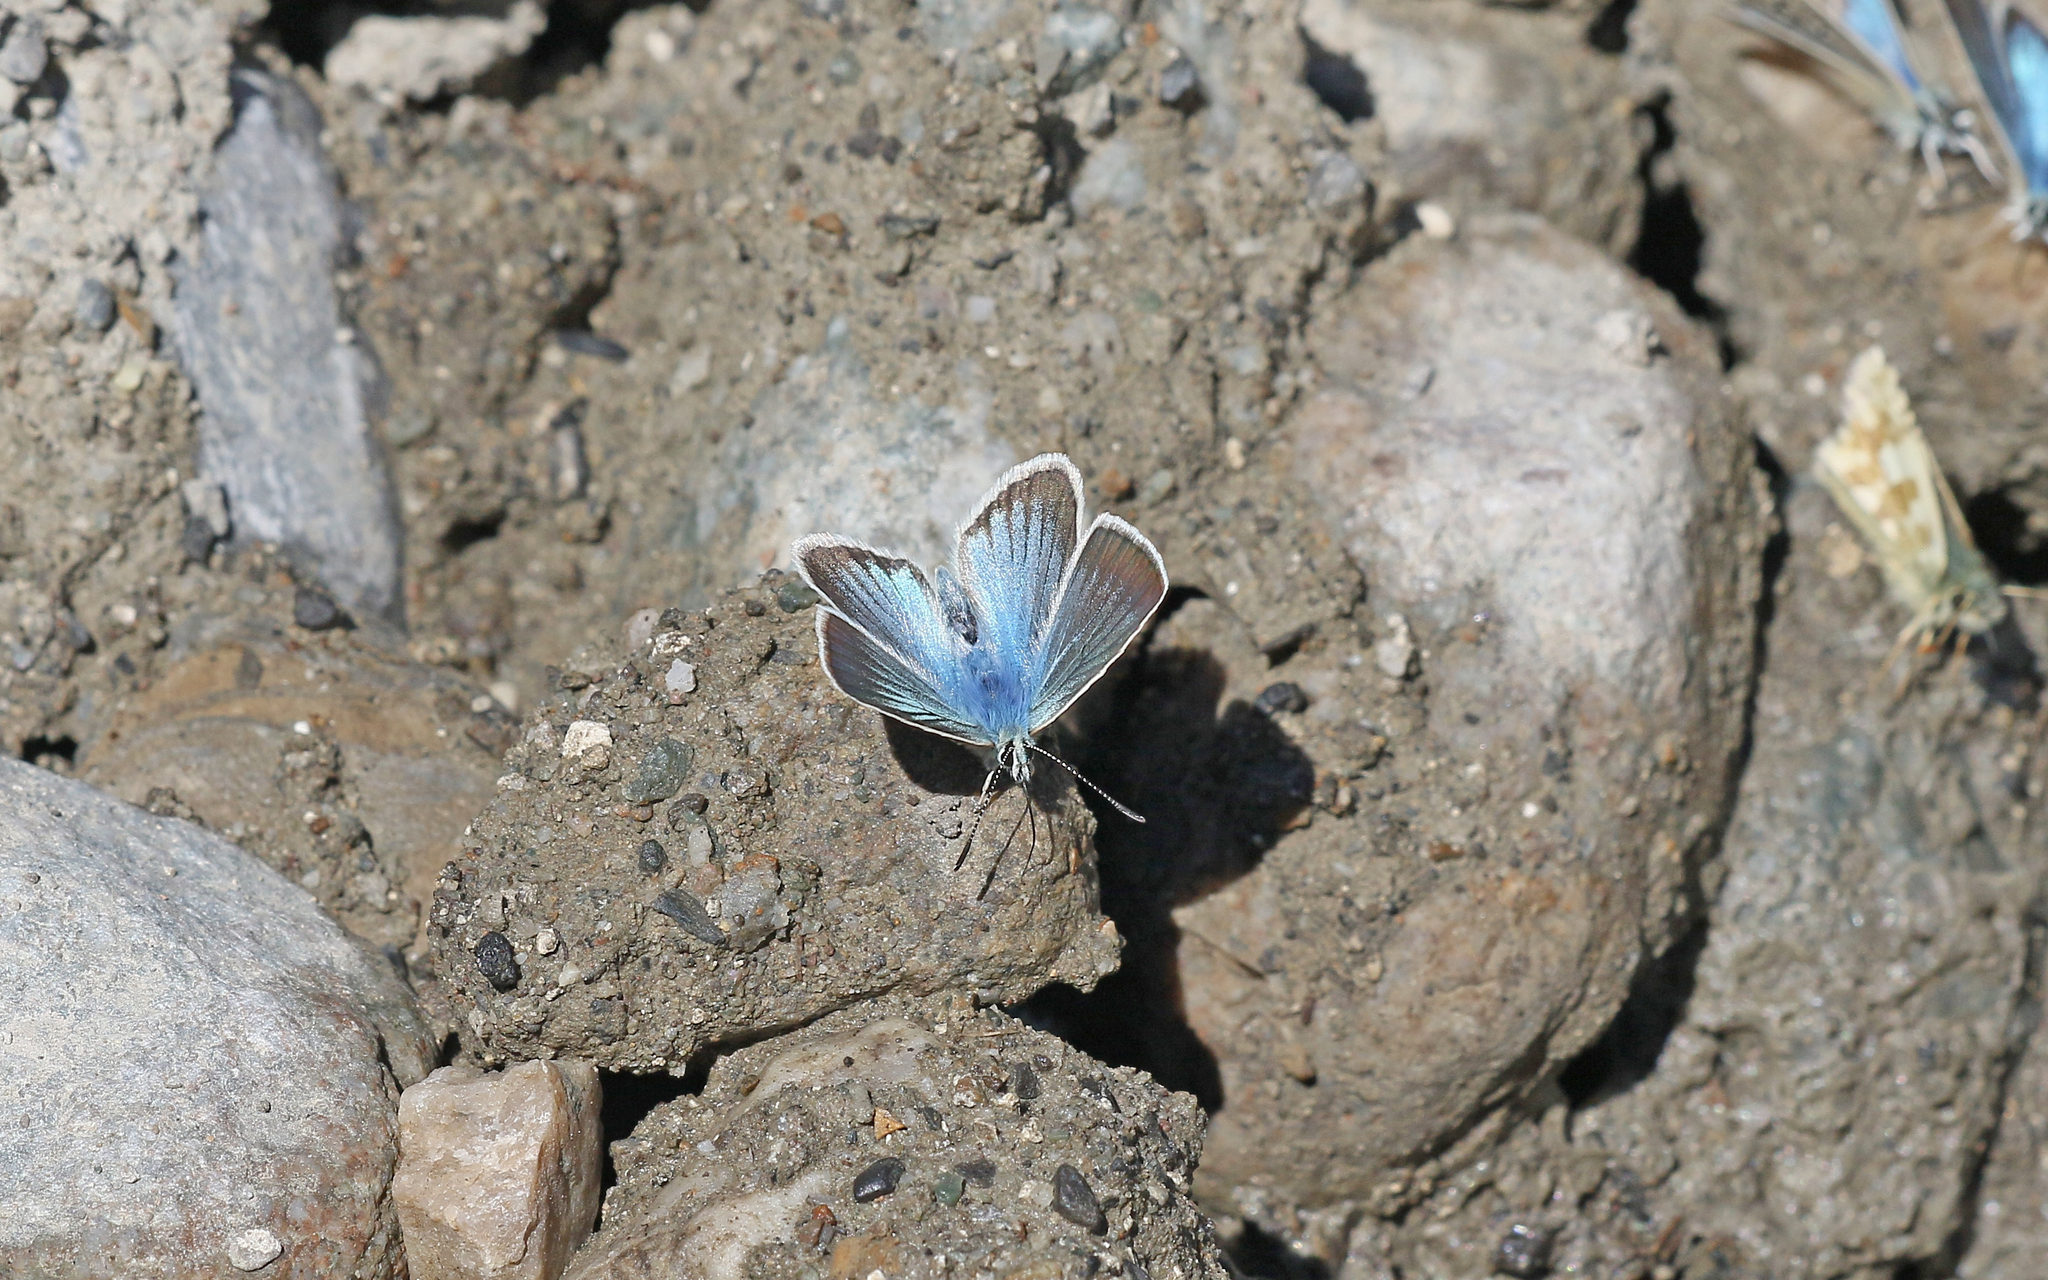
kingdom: Animalia
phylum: Arthropoda
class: Insecta
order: Lepidoptera
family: Lycaenidae
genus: Agrodiaetus
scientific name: Agrodiaetus damon
